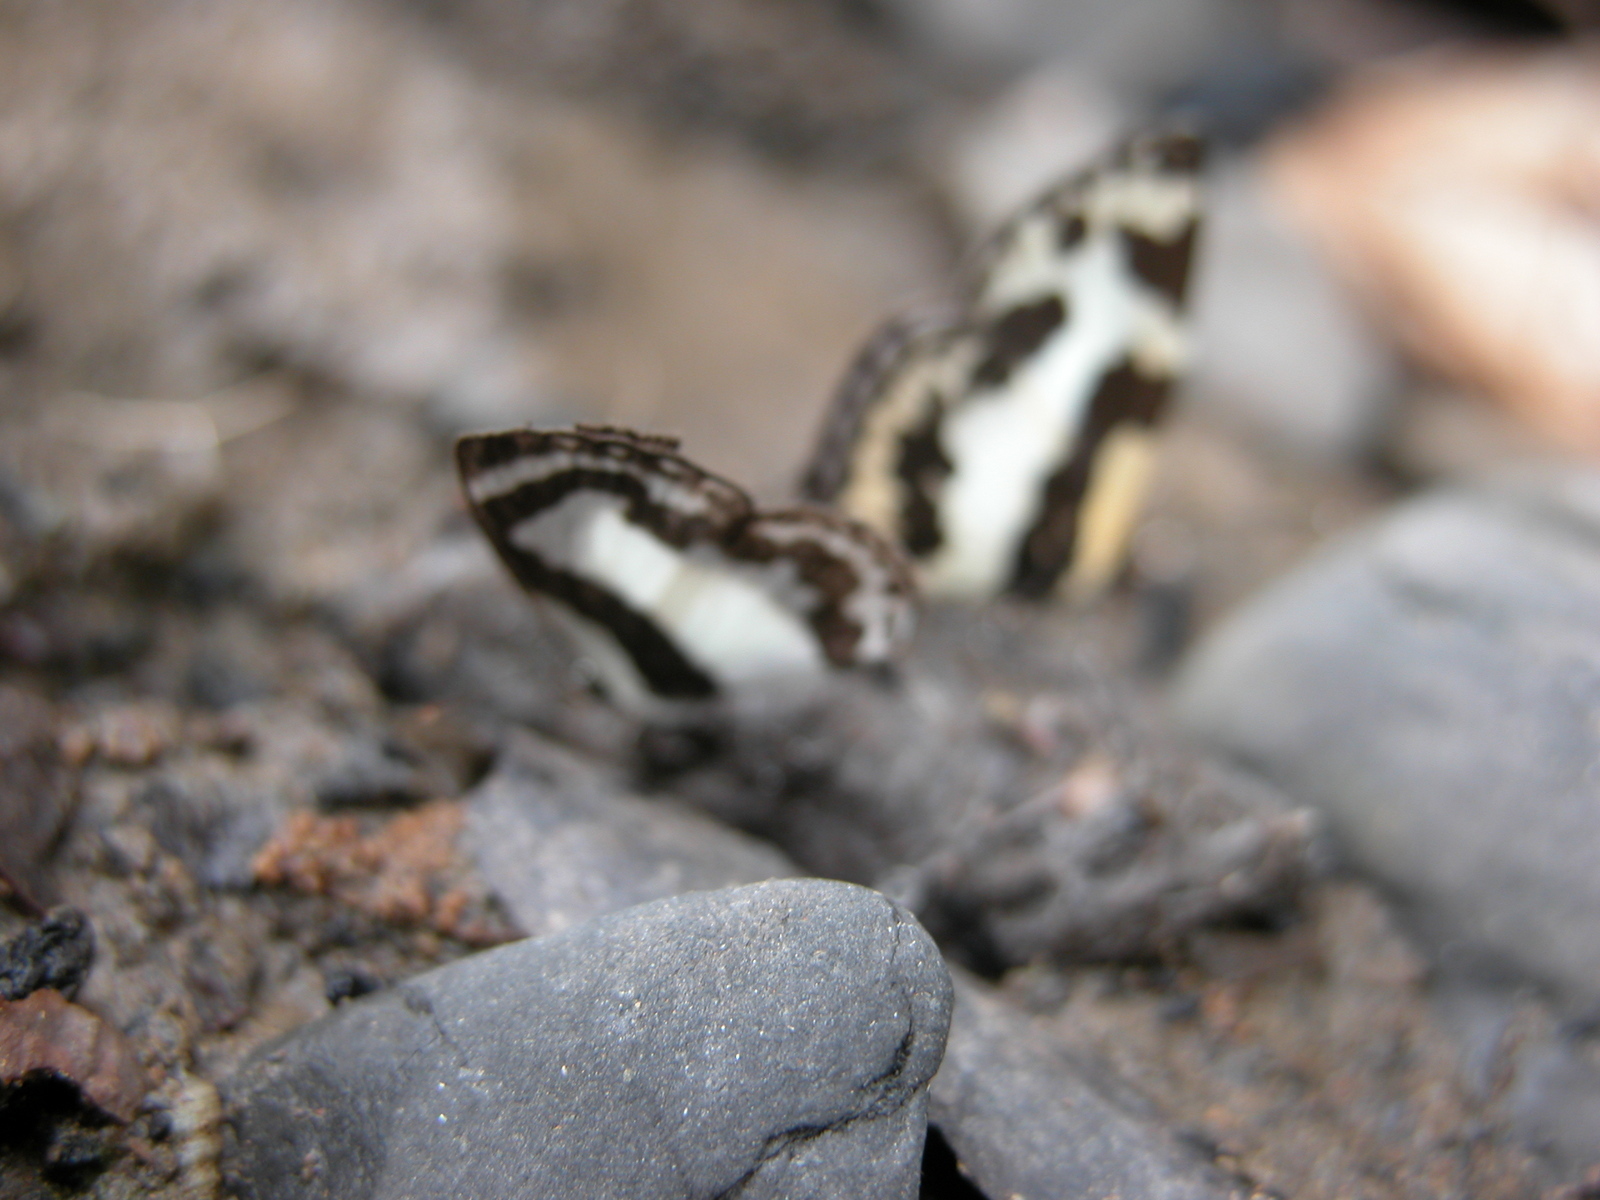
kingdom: Animalia
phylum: Arthropoda
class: Insecta
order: Lepidoptera
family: Lycaenidae
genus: Caleta
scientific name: Caleta roxus
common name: Straight pierrot
